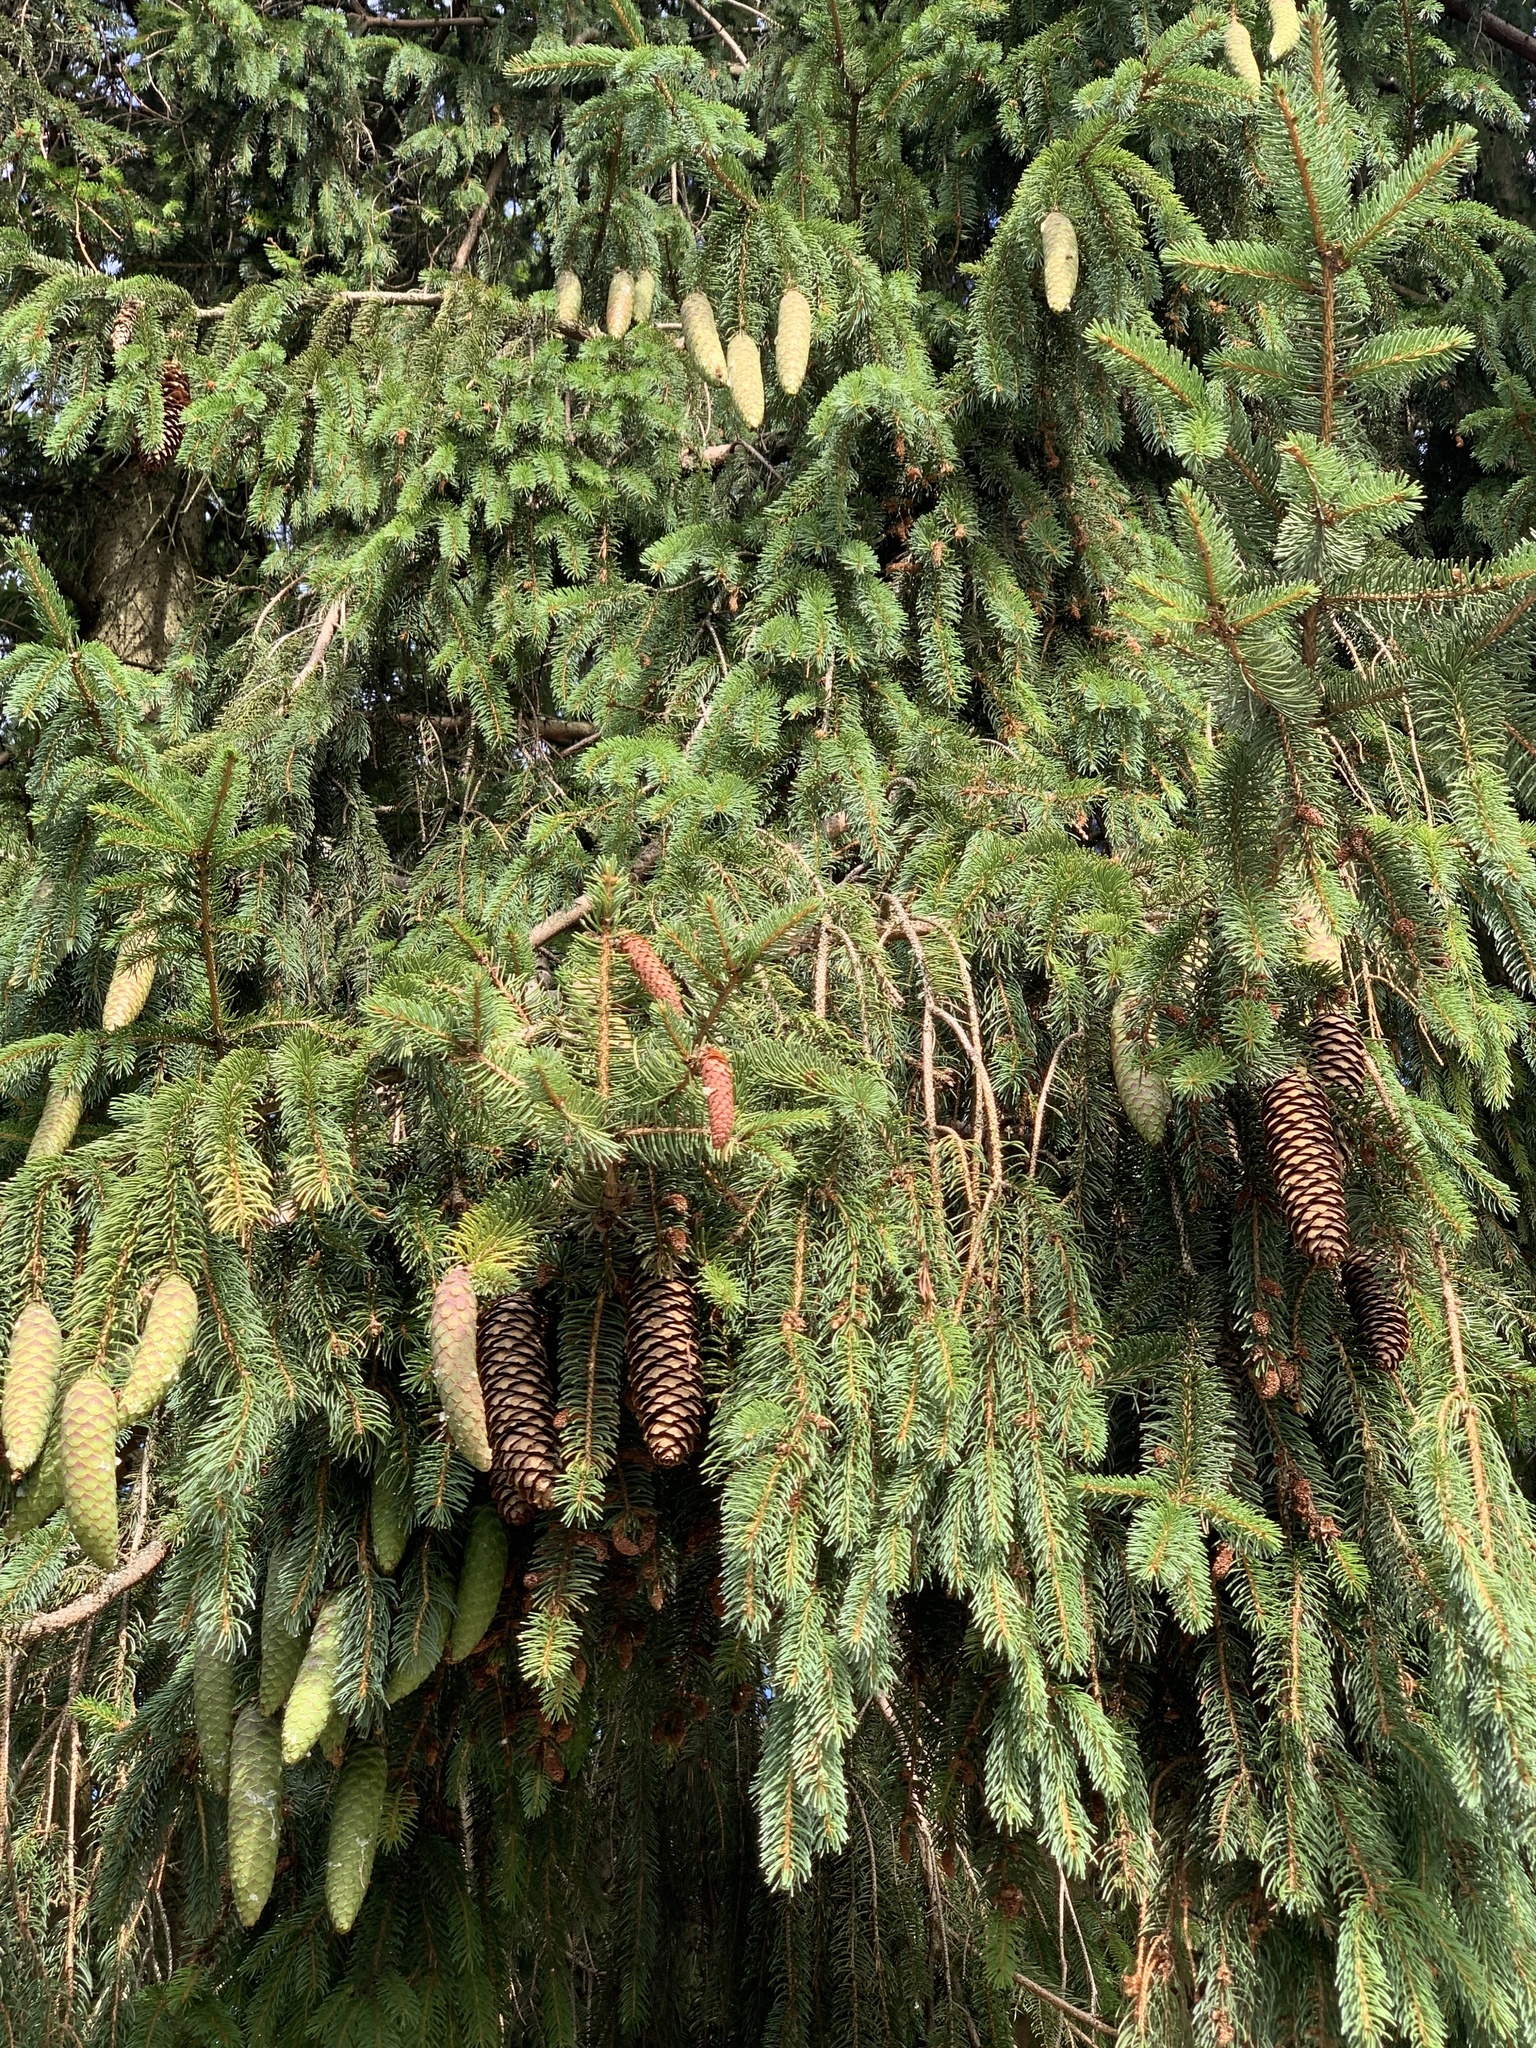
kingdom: Plantae
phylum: Tracheophyta
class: Pinopsida
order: Pinales
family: Pinaceae
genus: Picea
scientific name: Picea abies
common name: Norway spruce
